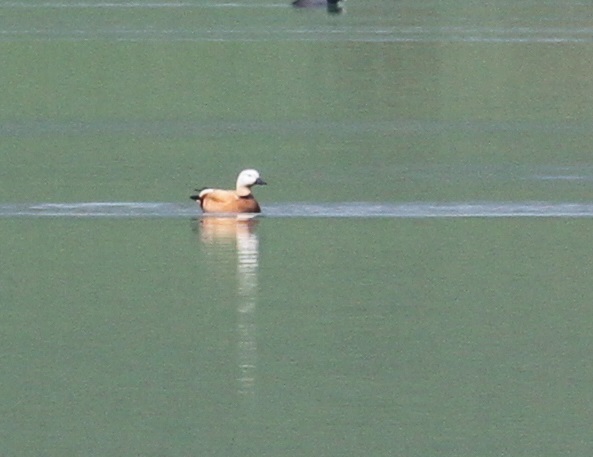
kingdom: Animalia
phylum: Chordata
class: Aves
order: Anseriformes
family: Anatidae
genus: Tadorna
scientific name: Tadorna ferruginea
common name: Ruddy shelduck
